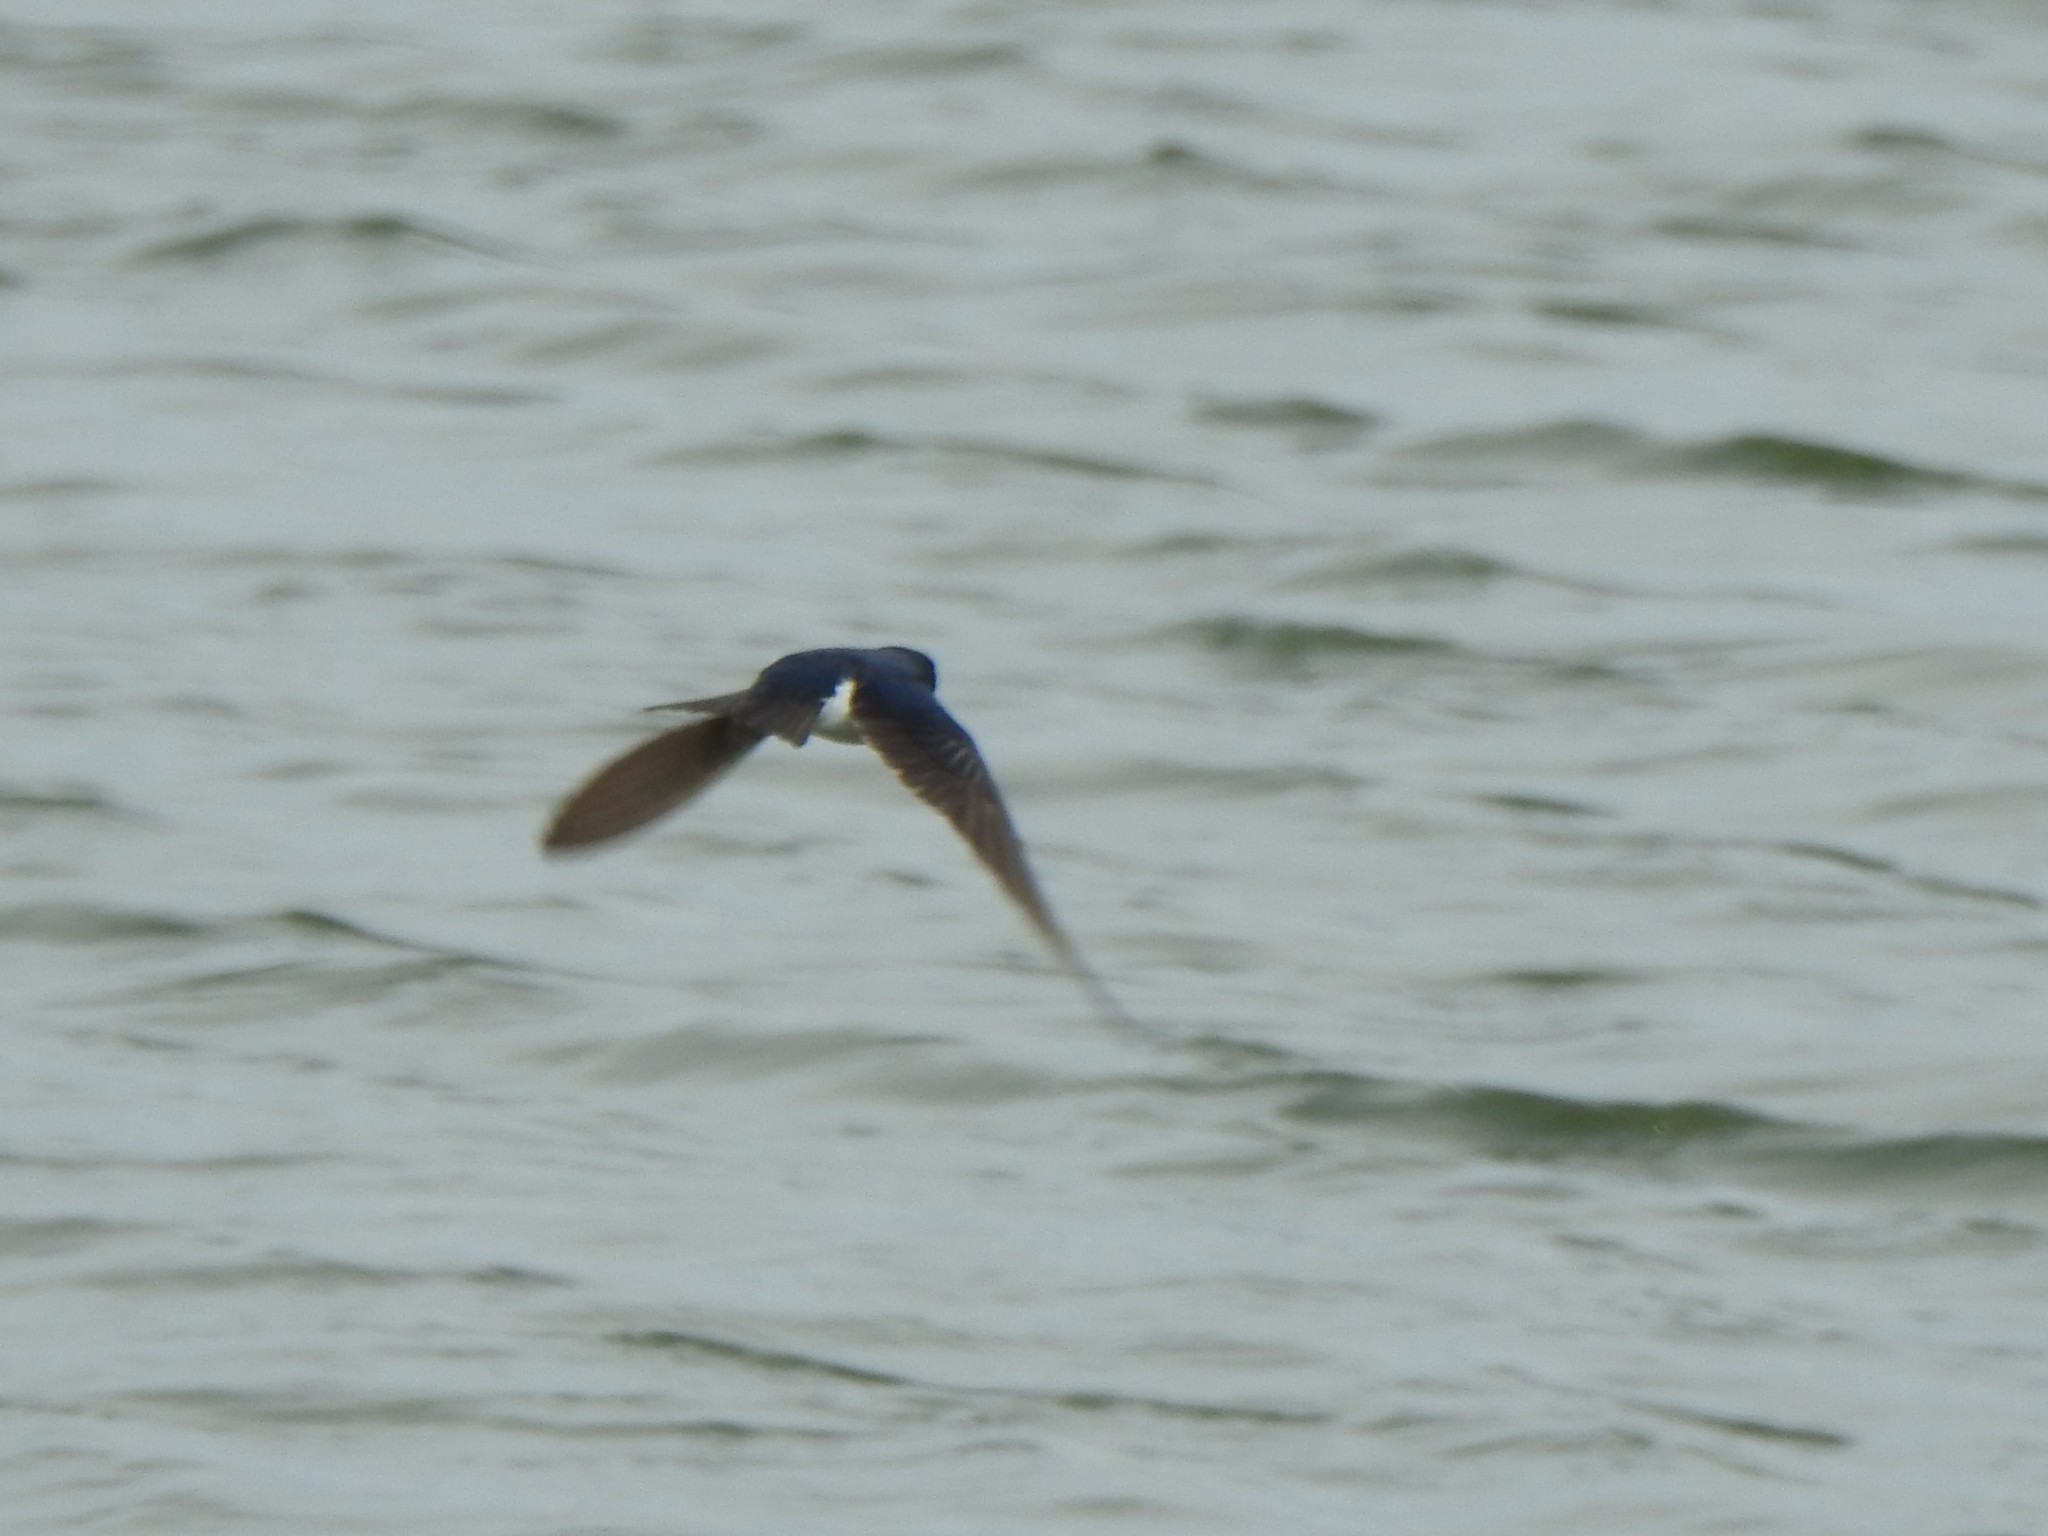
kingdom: Animalia
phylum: Chordata
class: Aves
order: Passeriformes
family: Hirundinidae
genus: Tachycineta
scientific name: Tachycineta bicolor
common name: Tree swallow
